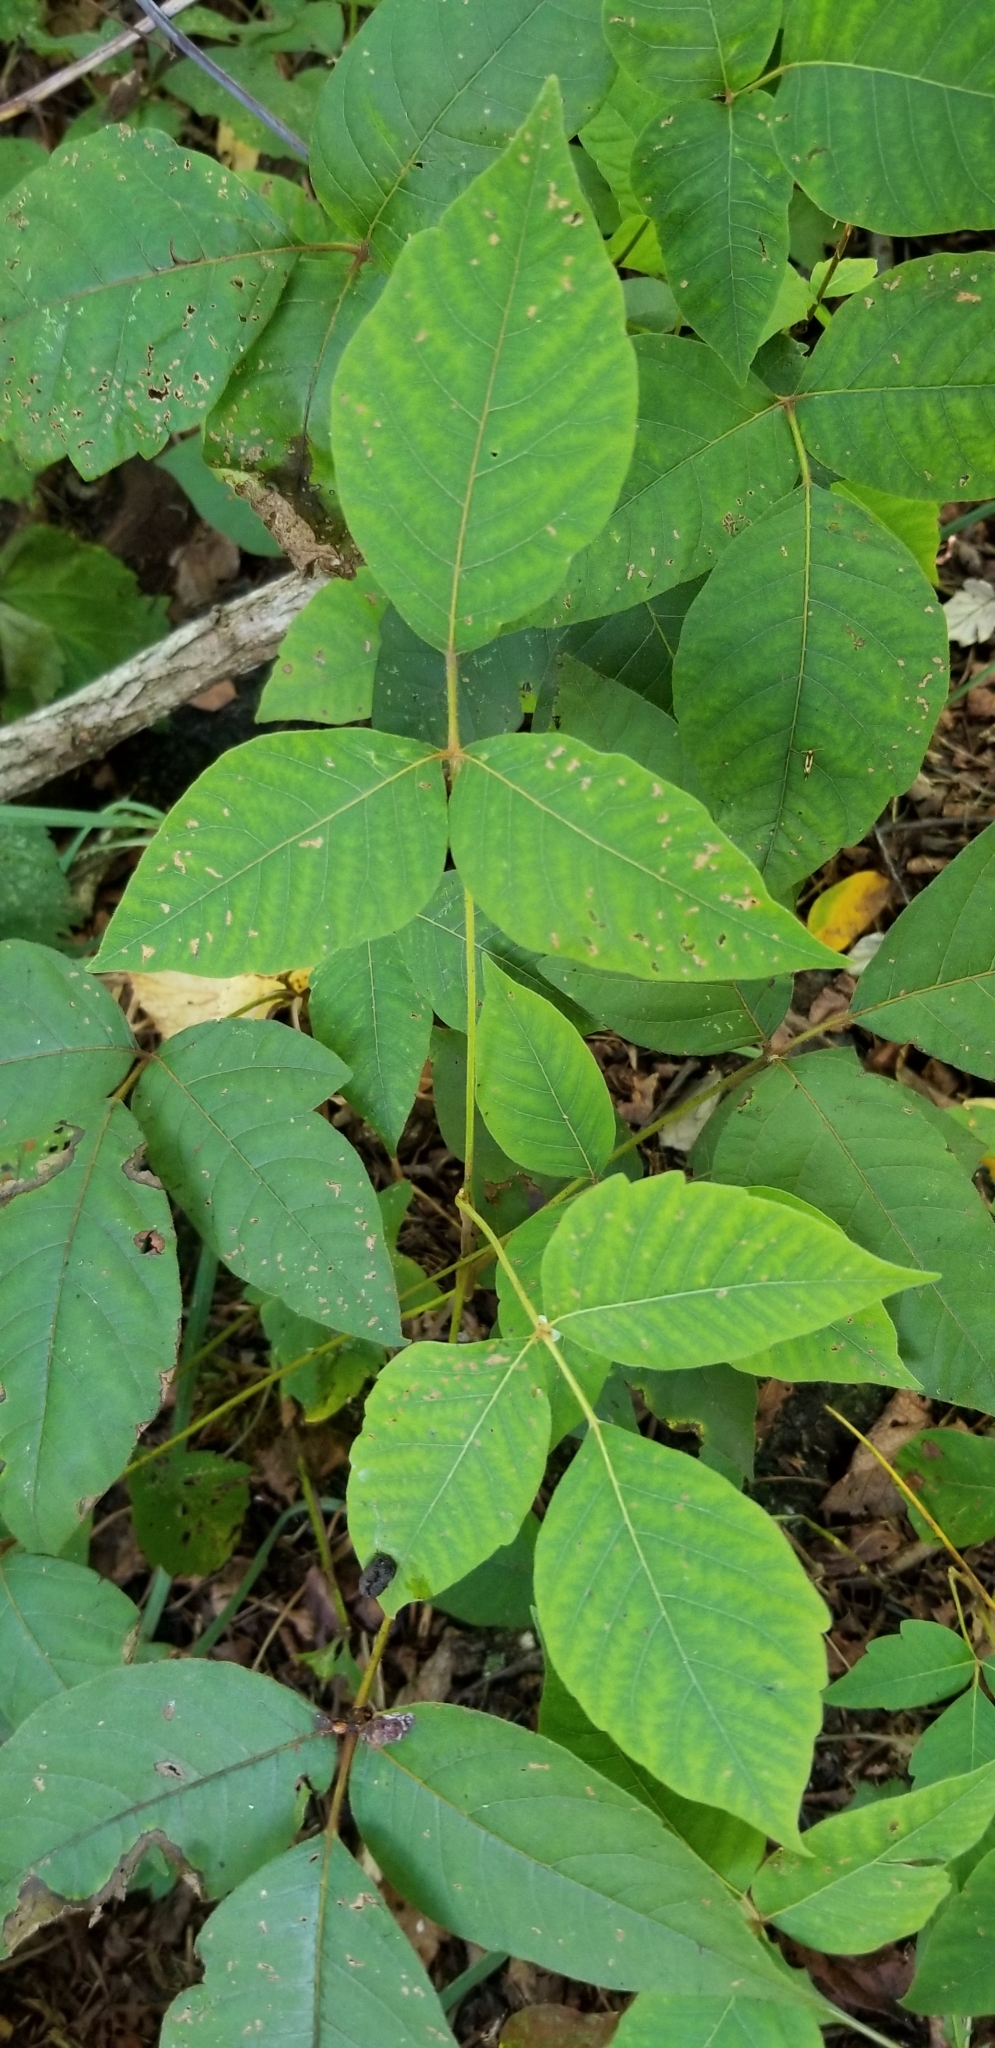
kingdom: Plantae
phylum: Tracheophyta
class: Magnoliopsida
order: Sapindales
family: Anacardiaceae
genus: Toxicodendron
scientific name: Toxicodendron radicans
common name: Poison ivy
